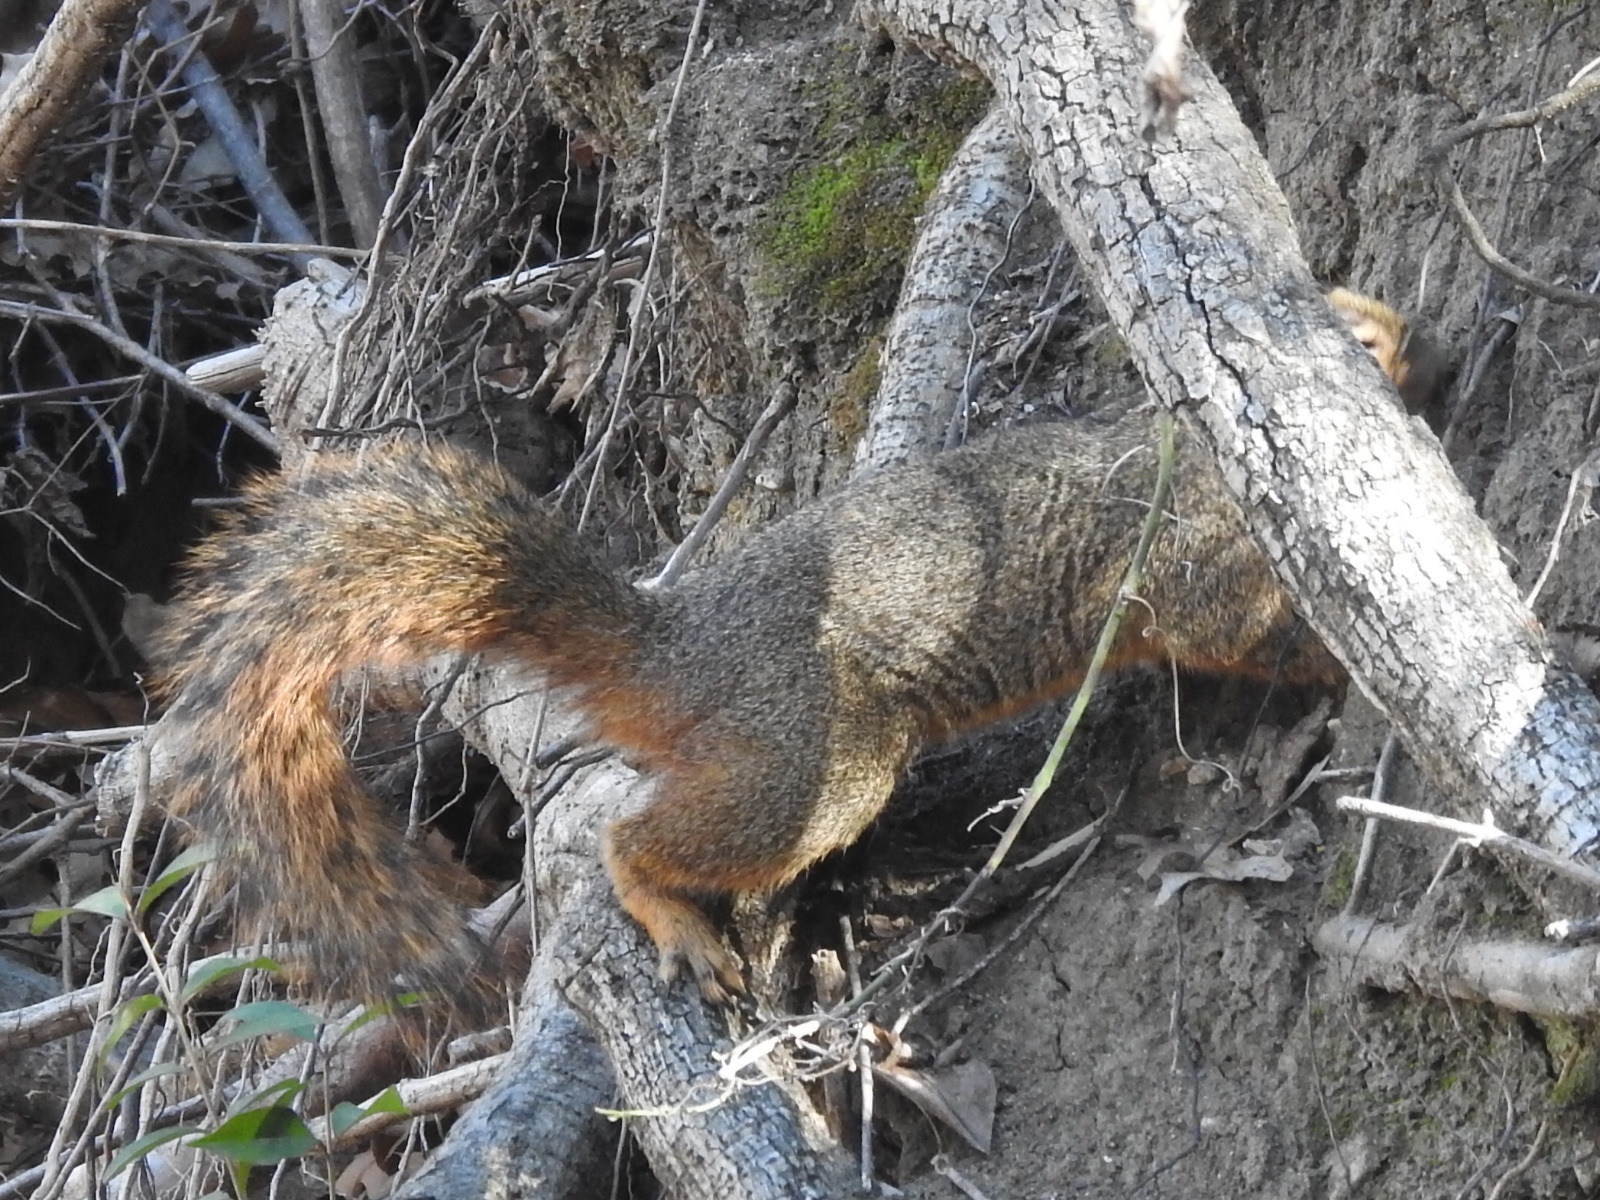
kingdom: Animalia
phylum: Chordata
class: Mammalia
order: Rodentia
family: Sciuridae
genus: Sciurus
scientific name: Sciurus niger
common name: Fox squirrel
